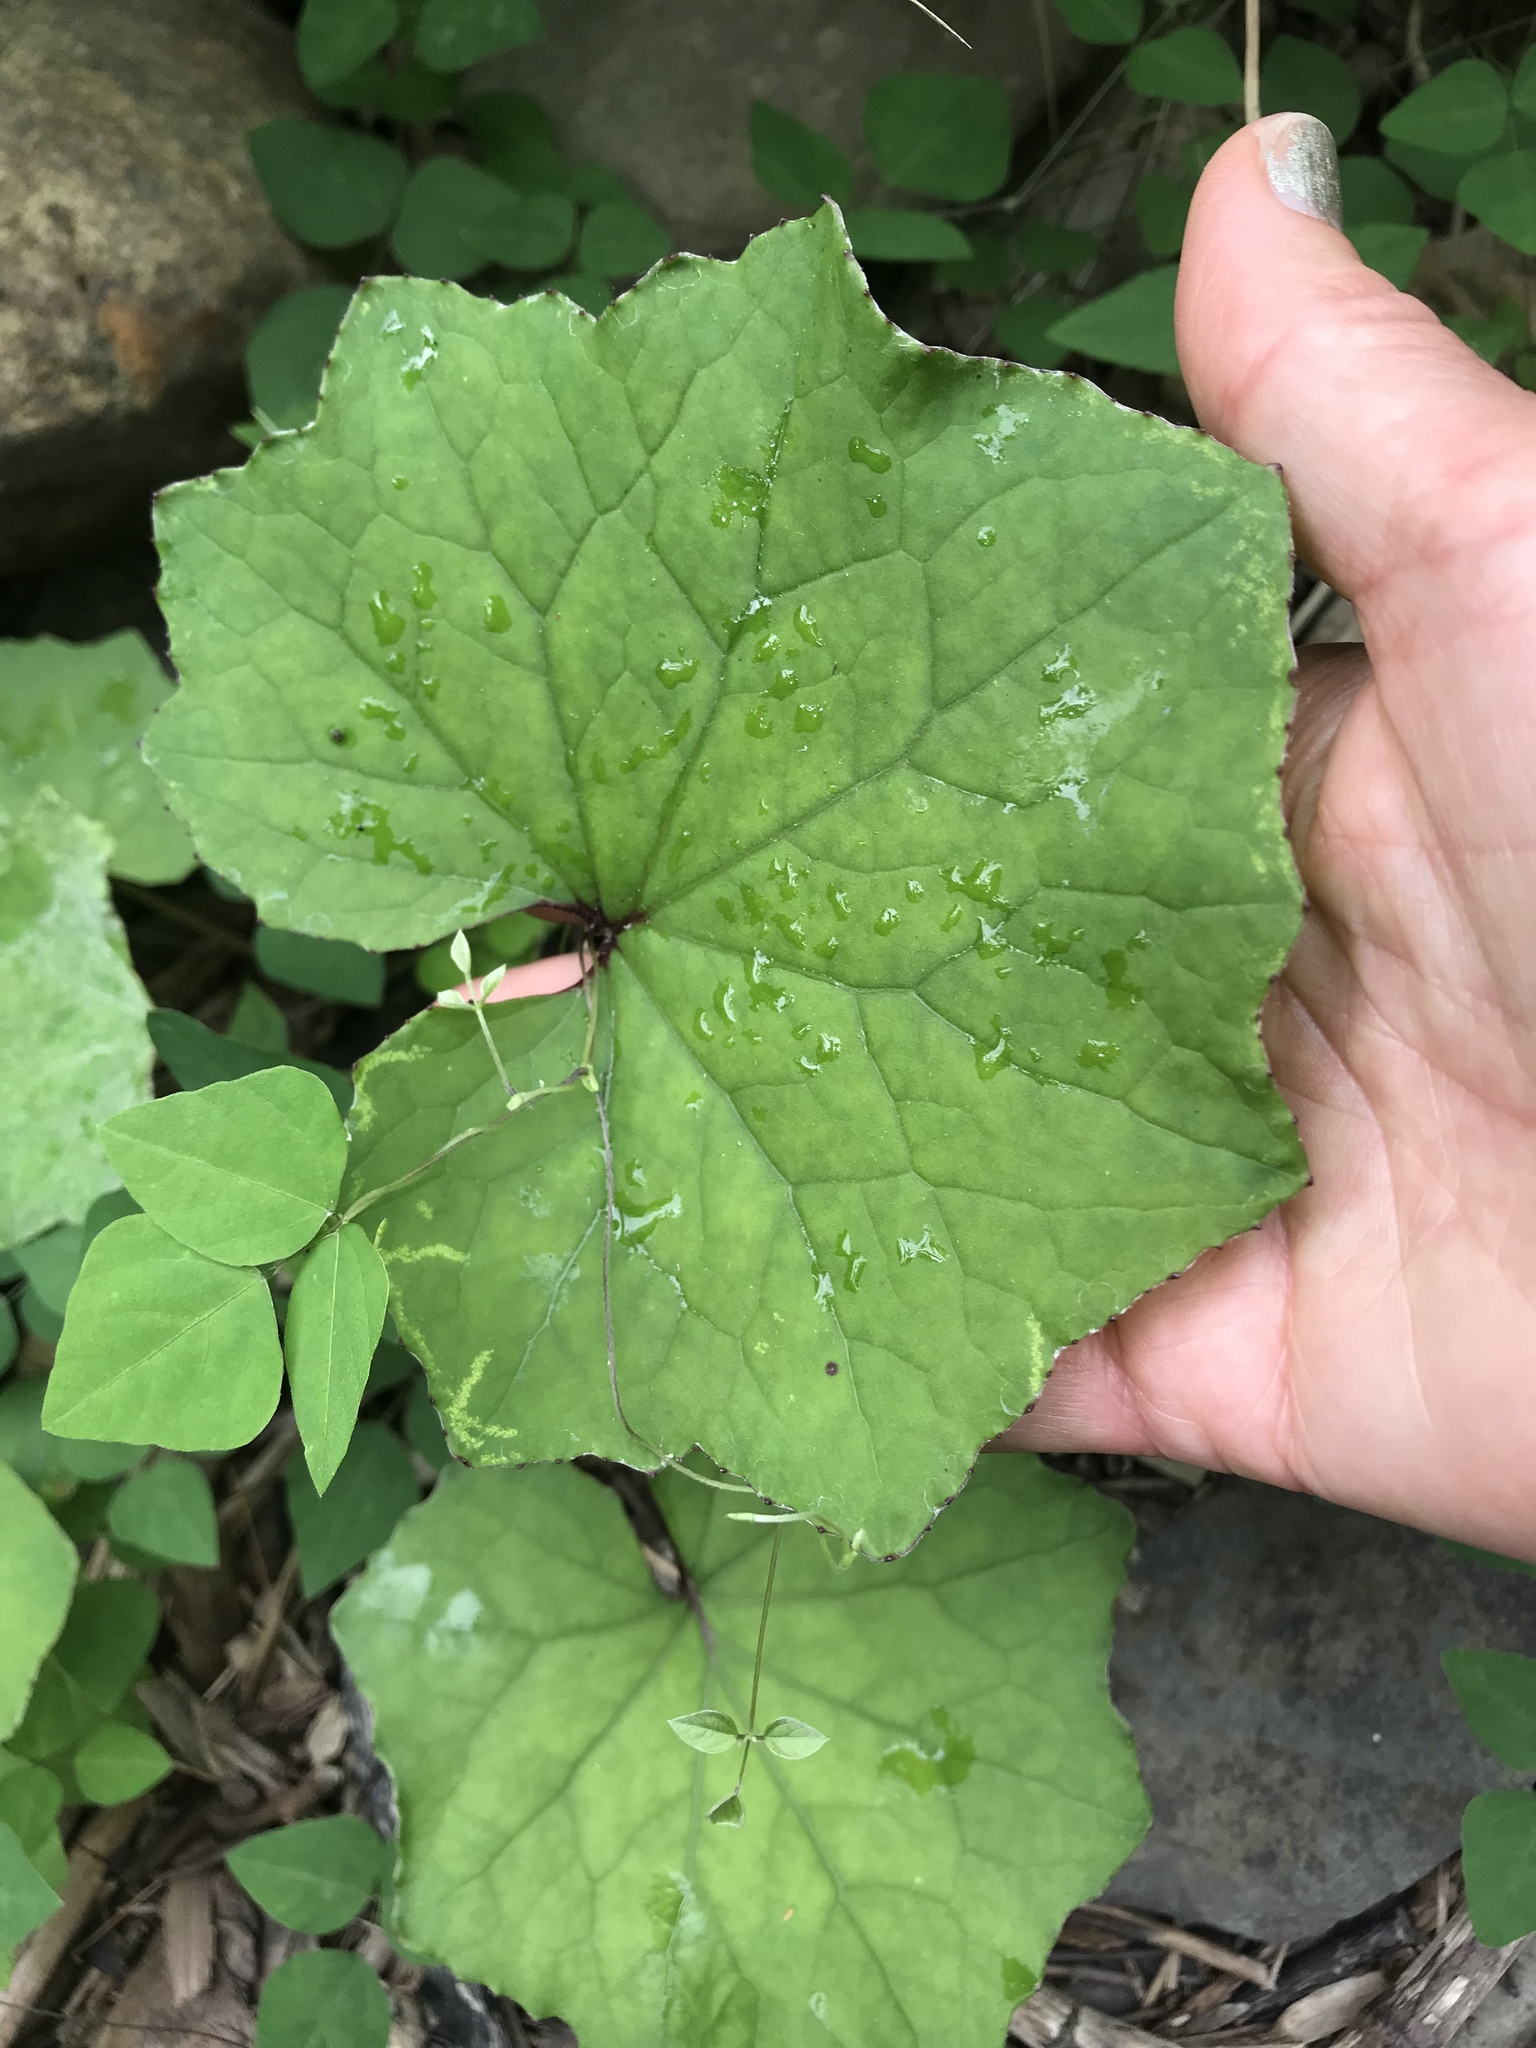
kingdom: Plantae
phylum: Tracheophyta
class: Magnoliopsida
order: Asterales
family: Asteraceae
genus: Tussilago
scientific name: Tussilago farfara
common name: Coltsfoot
